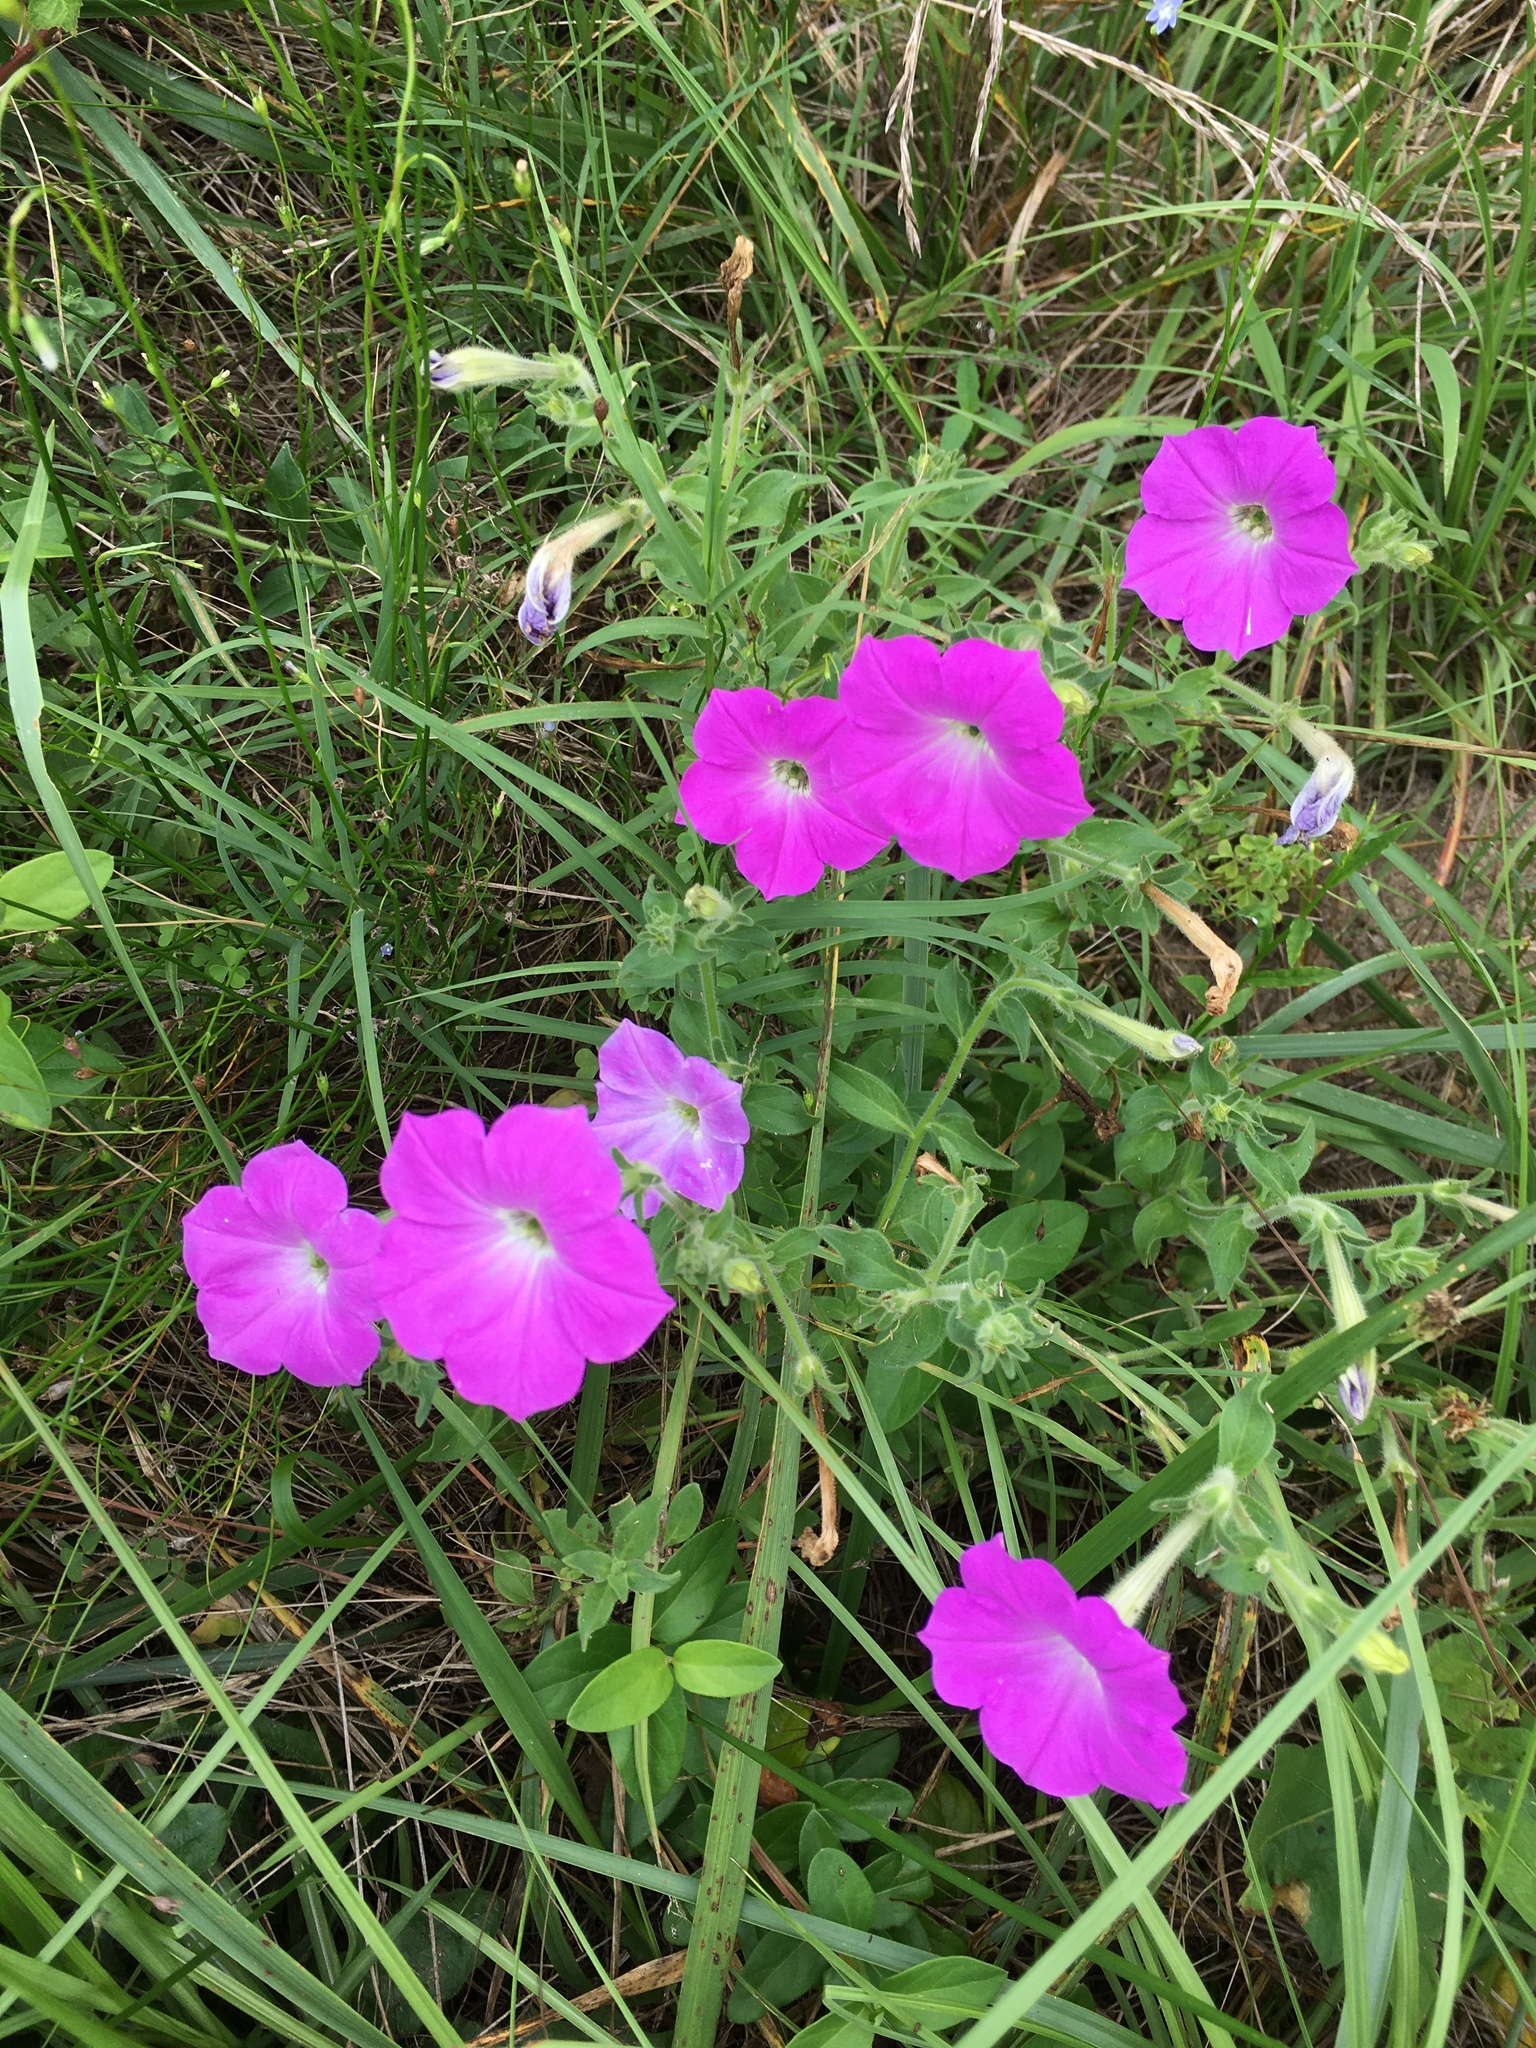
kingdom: Plantae
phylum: Tracheophyta
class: Magnoliopsida
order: Solanales
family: Solanaceae
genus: Petunia
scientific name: Petunia atkinsiana
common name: Petunia
